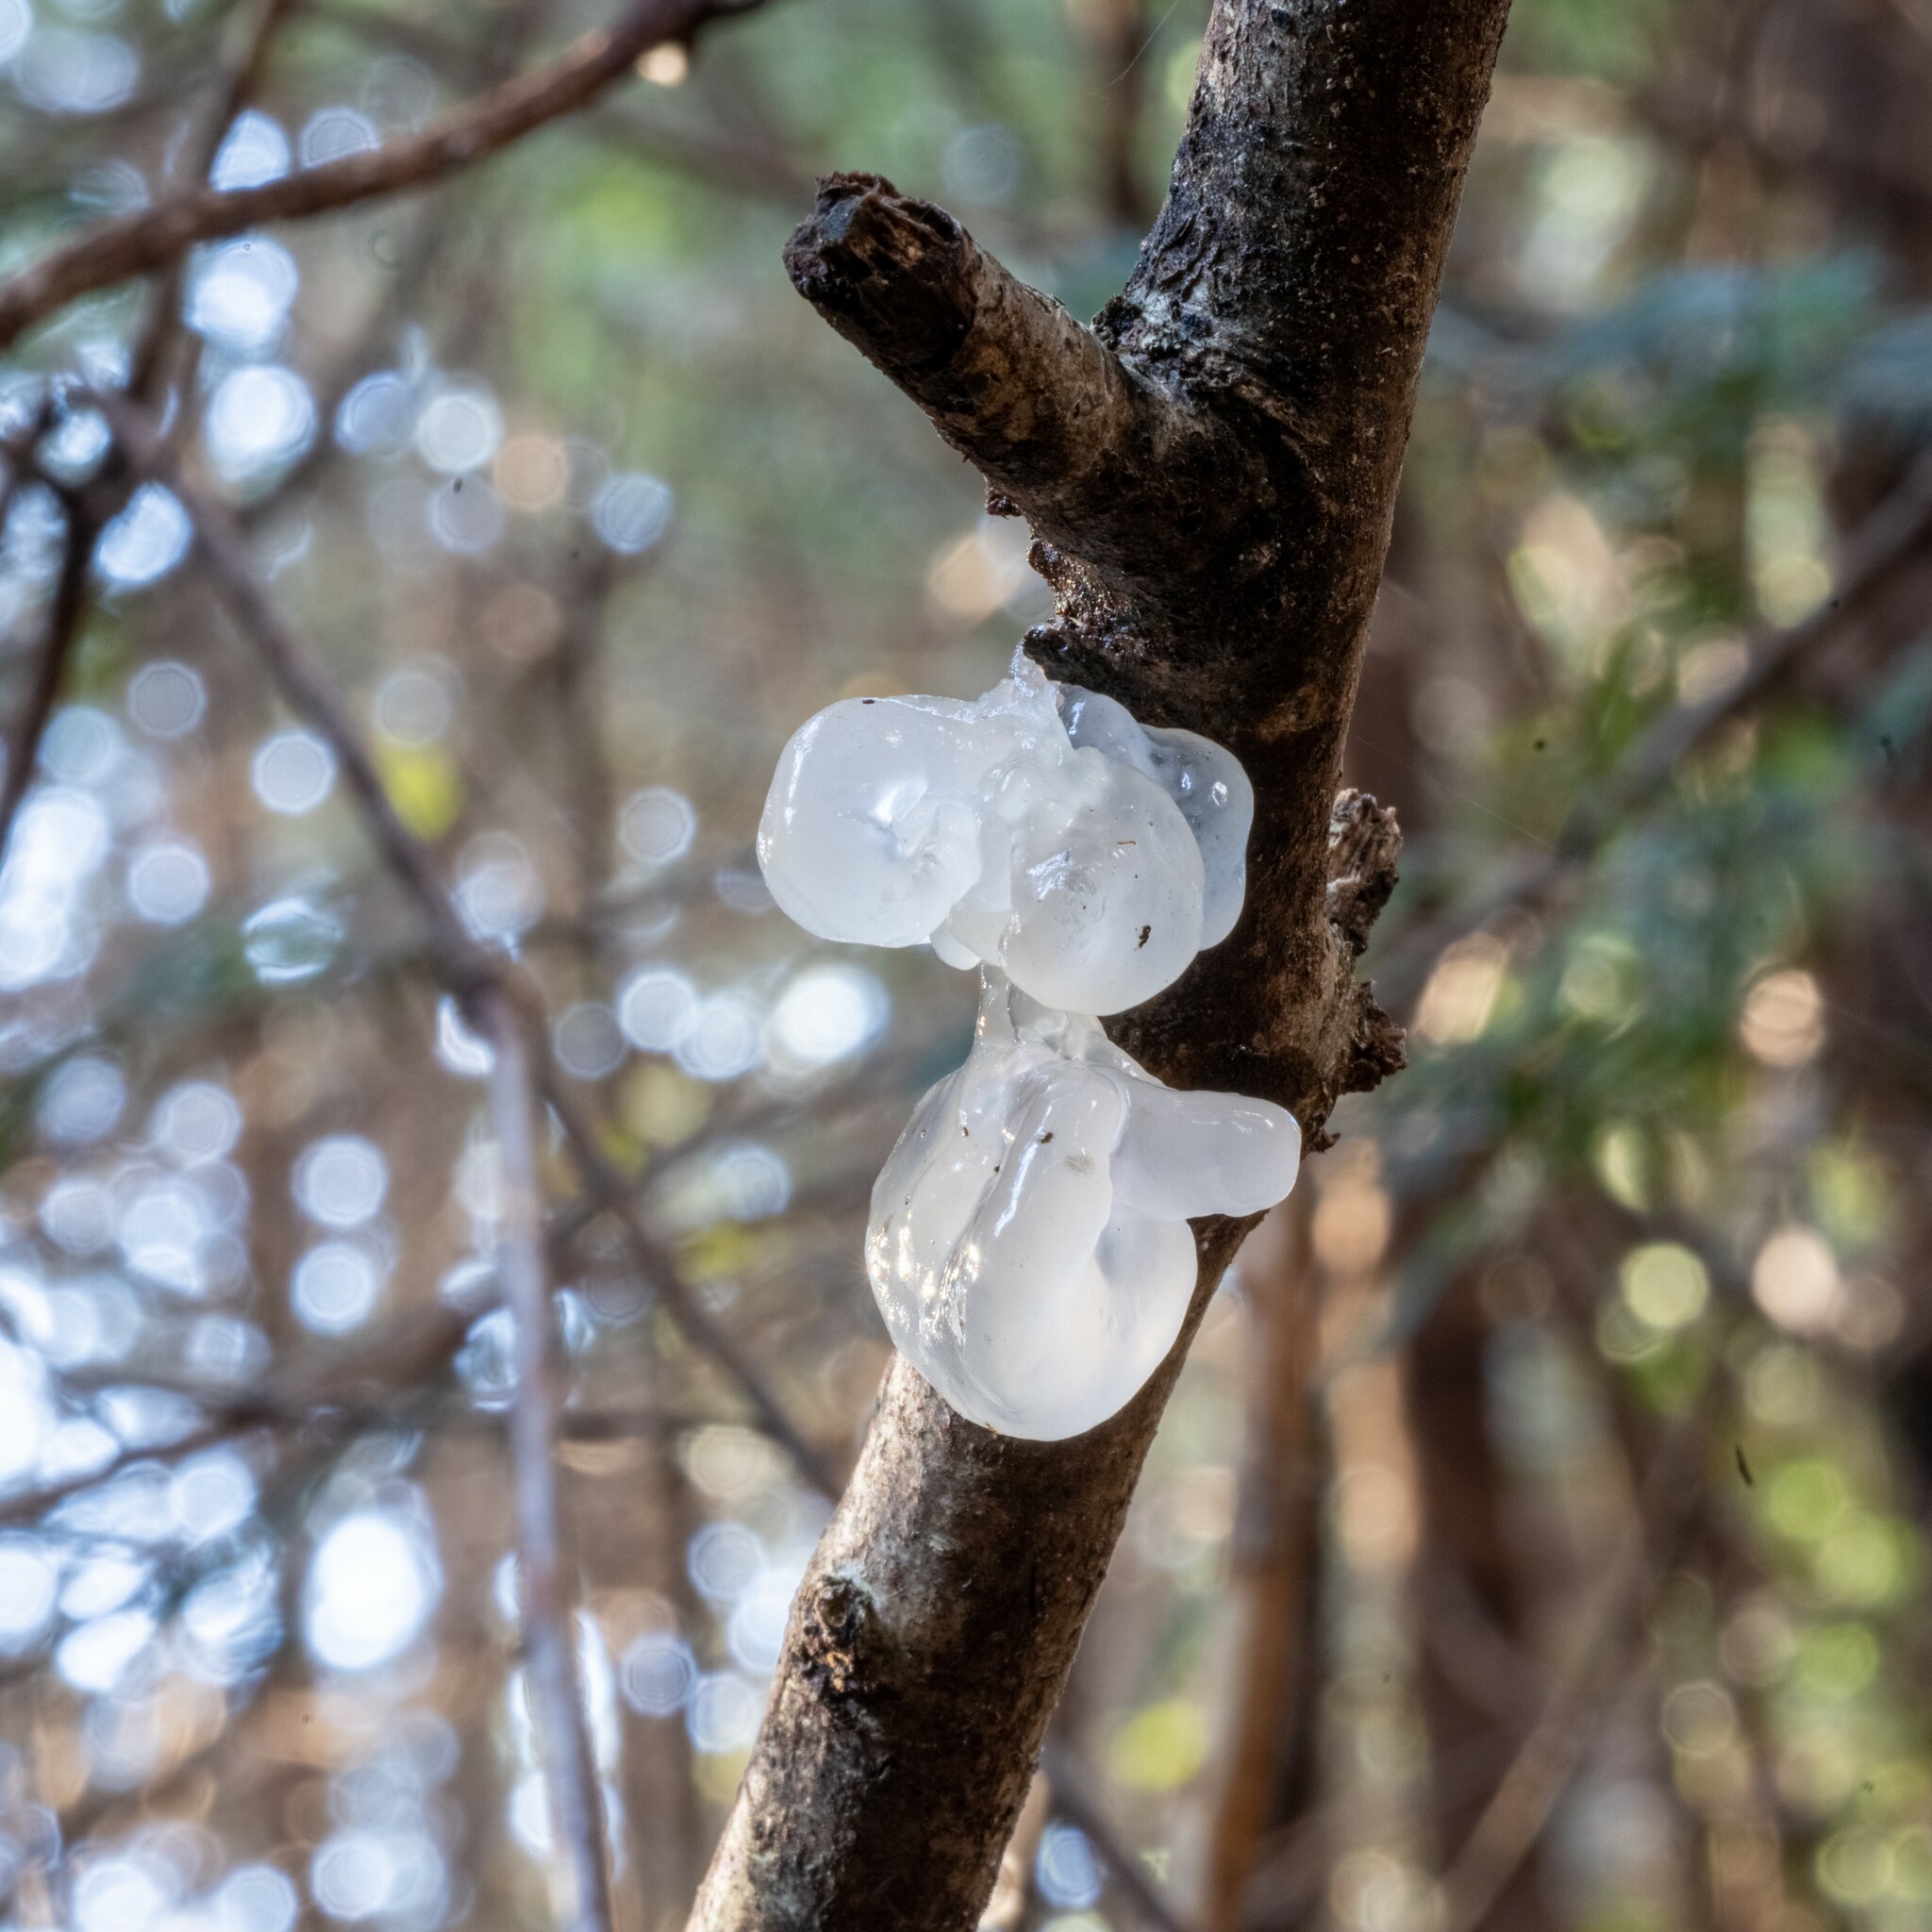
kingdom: Fungi
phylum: Basidiomycota
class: Tremellomycetes
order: Tremellales
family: Tremellaceae
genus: Tremella
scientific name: Tremella mesenterica
